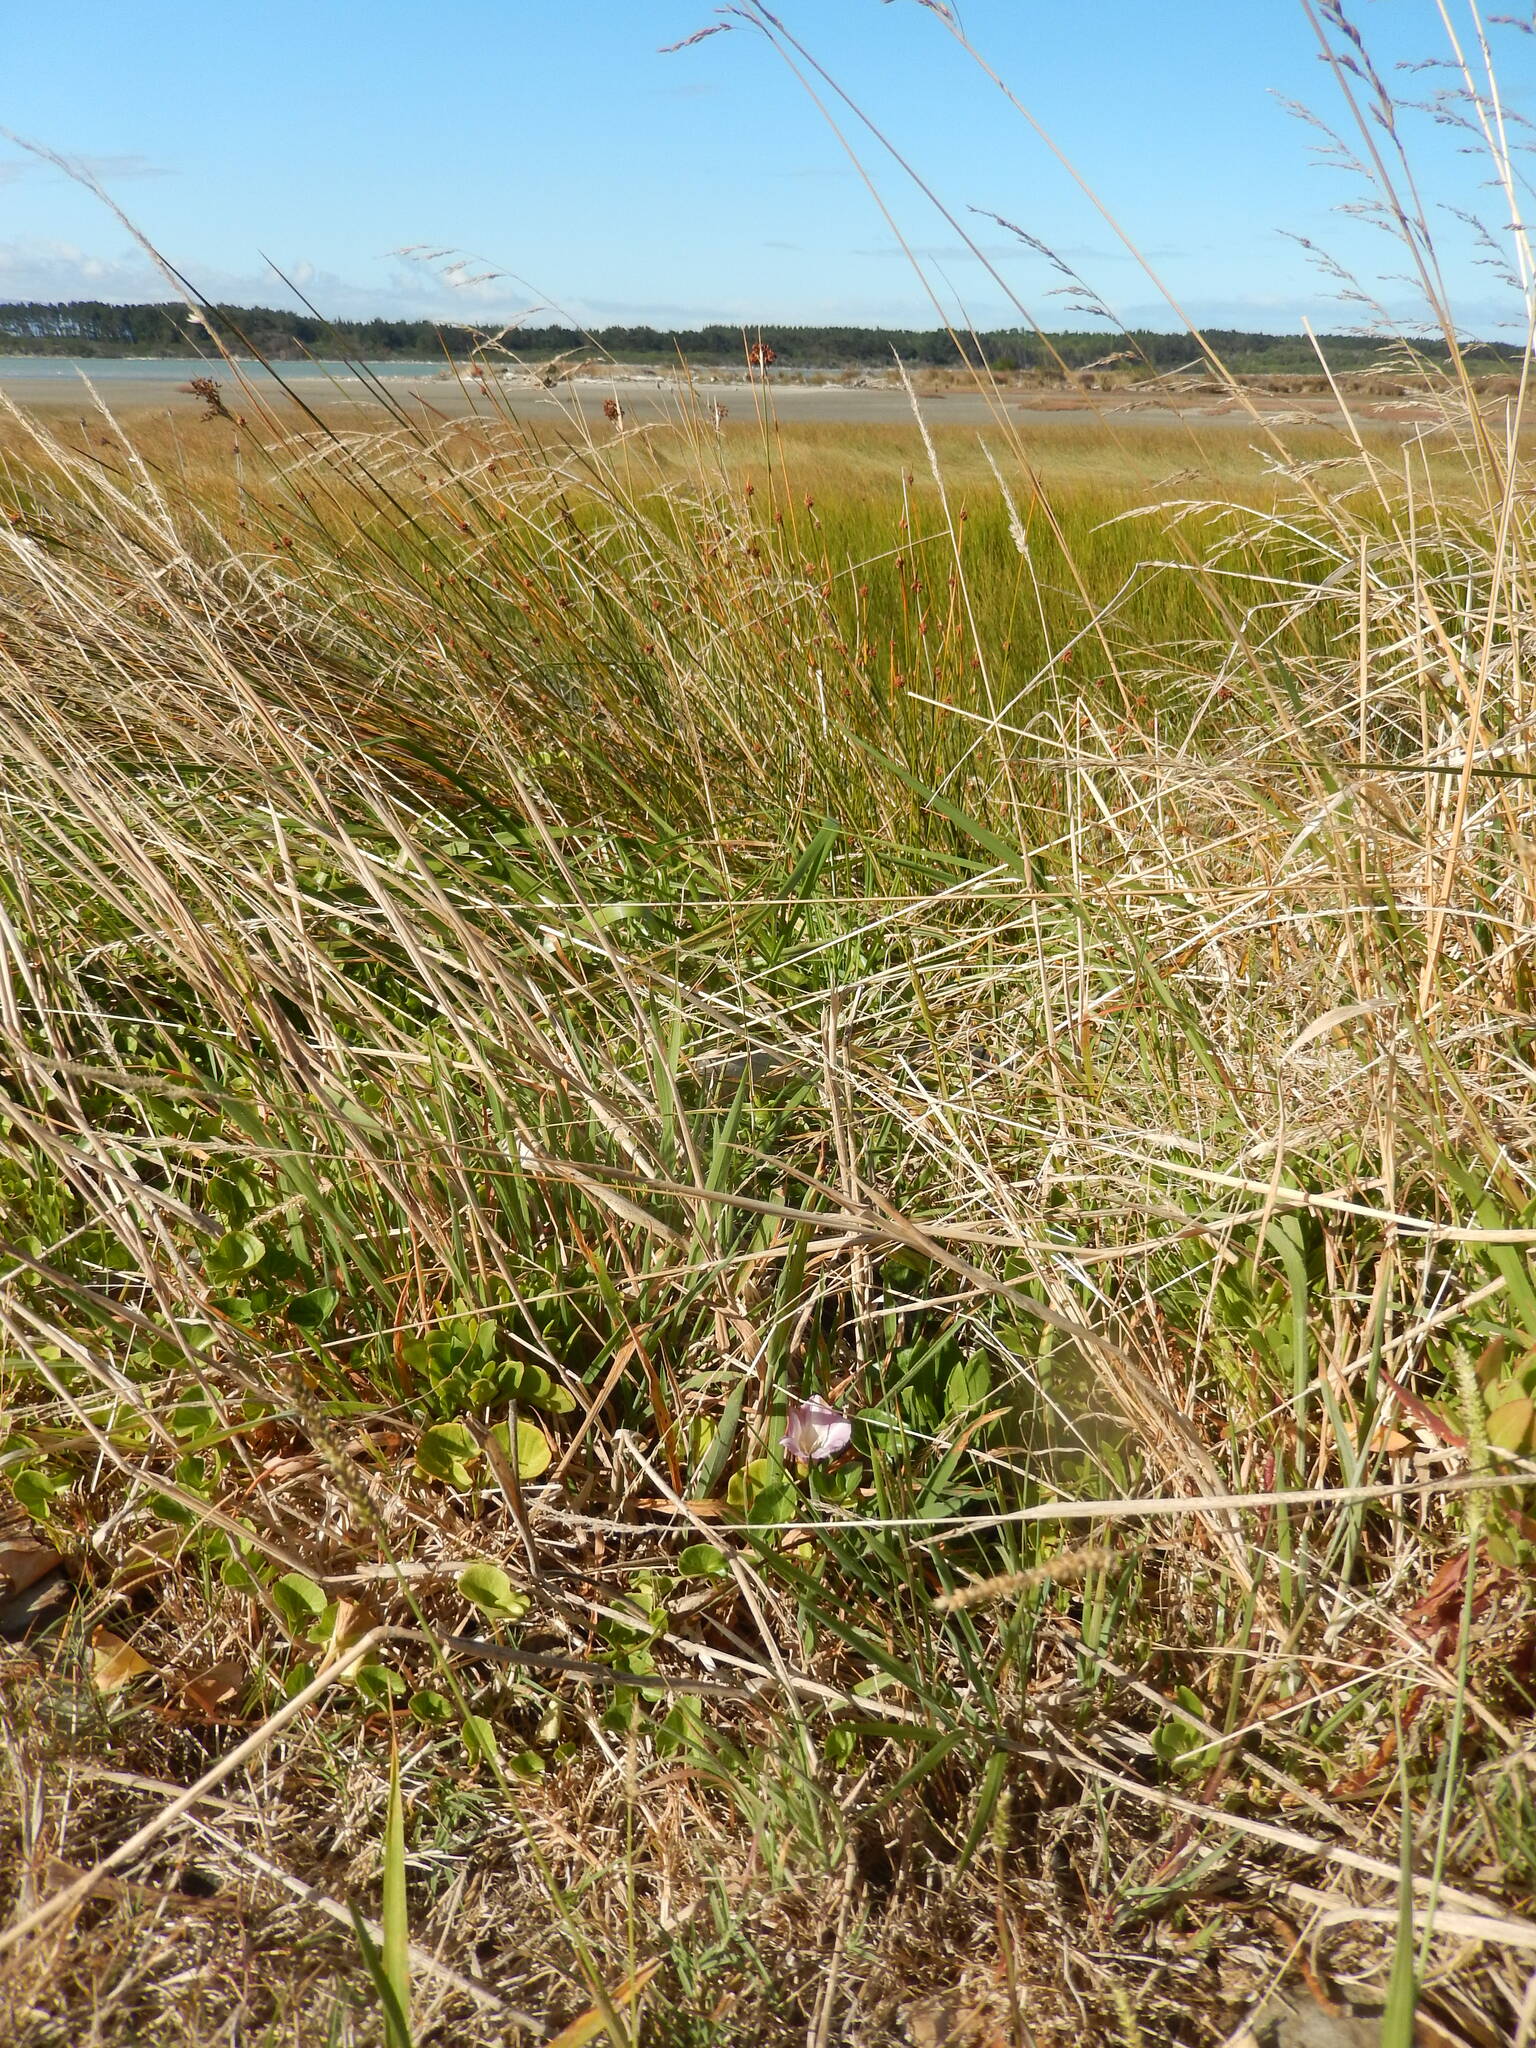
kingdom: Plantae
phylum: Tracheophyta
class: Magnoliopsida
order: Solanales
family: Convolvulaceae
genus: Calystegia
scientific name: Calystegia soldanella
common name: Sea bindweed
